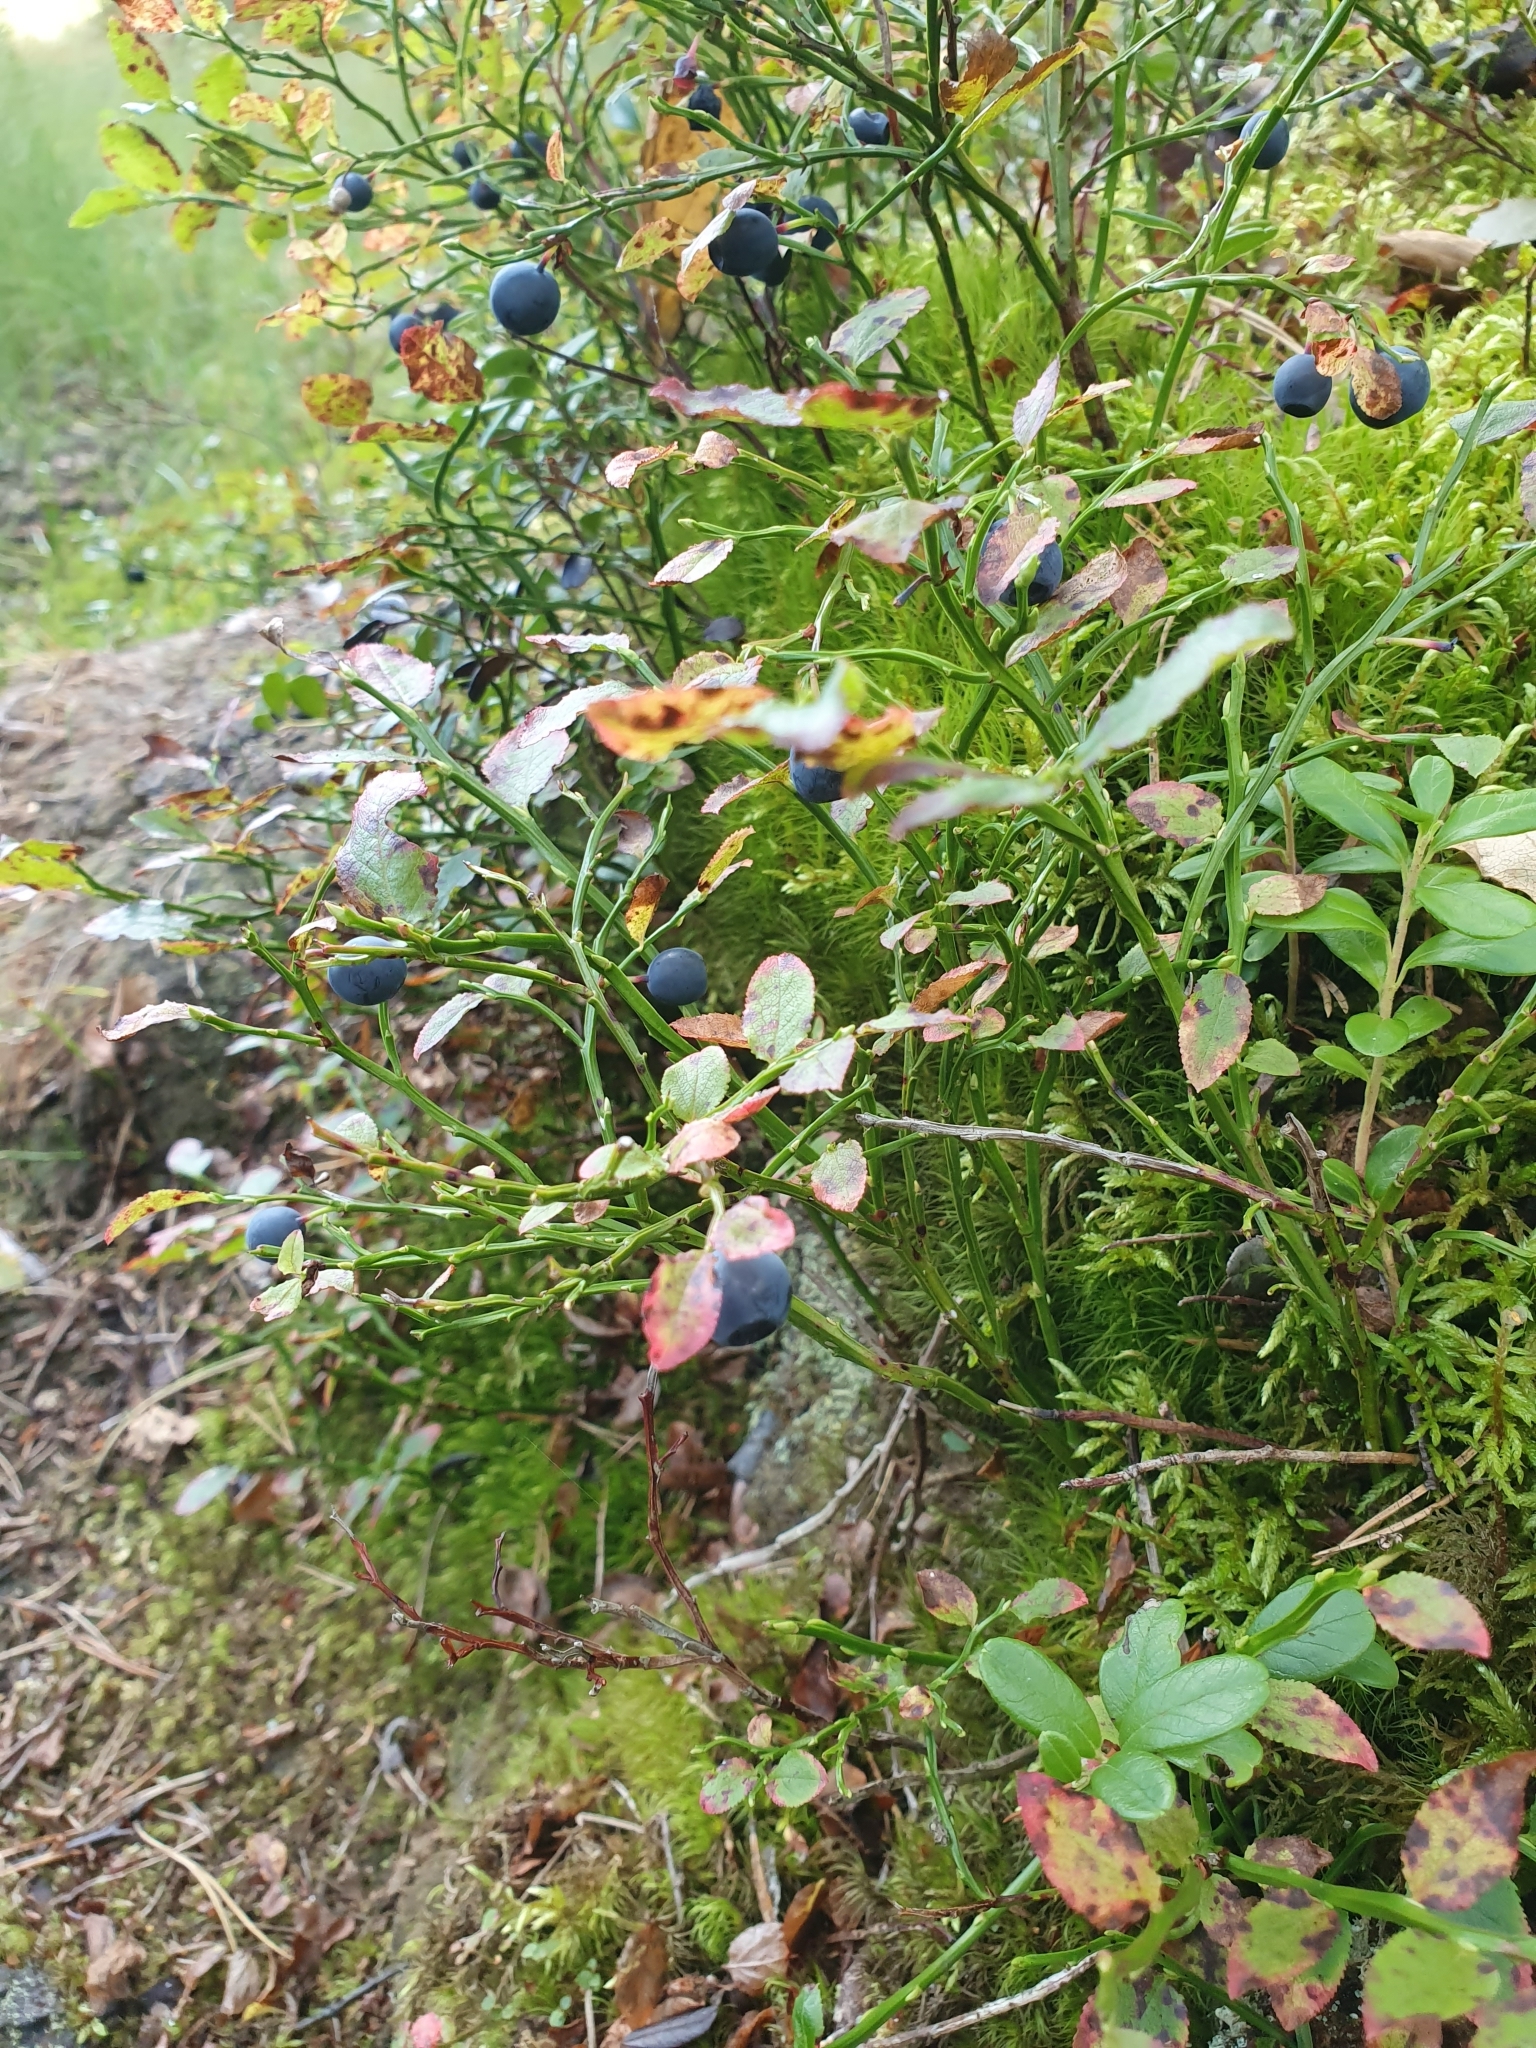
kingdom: Plantae
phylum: Tracheophyta
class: Magnoliopsida
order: Ericales
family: Ericaceae
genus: Vaccinium
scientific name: Vaccinium myrtillus
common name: Bilberry
